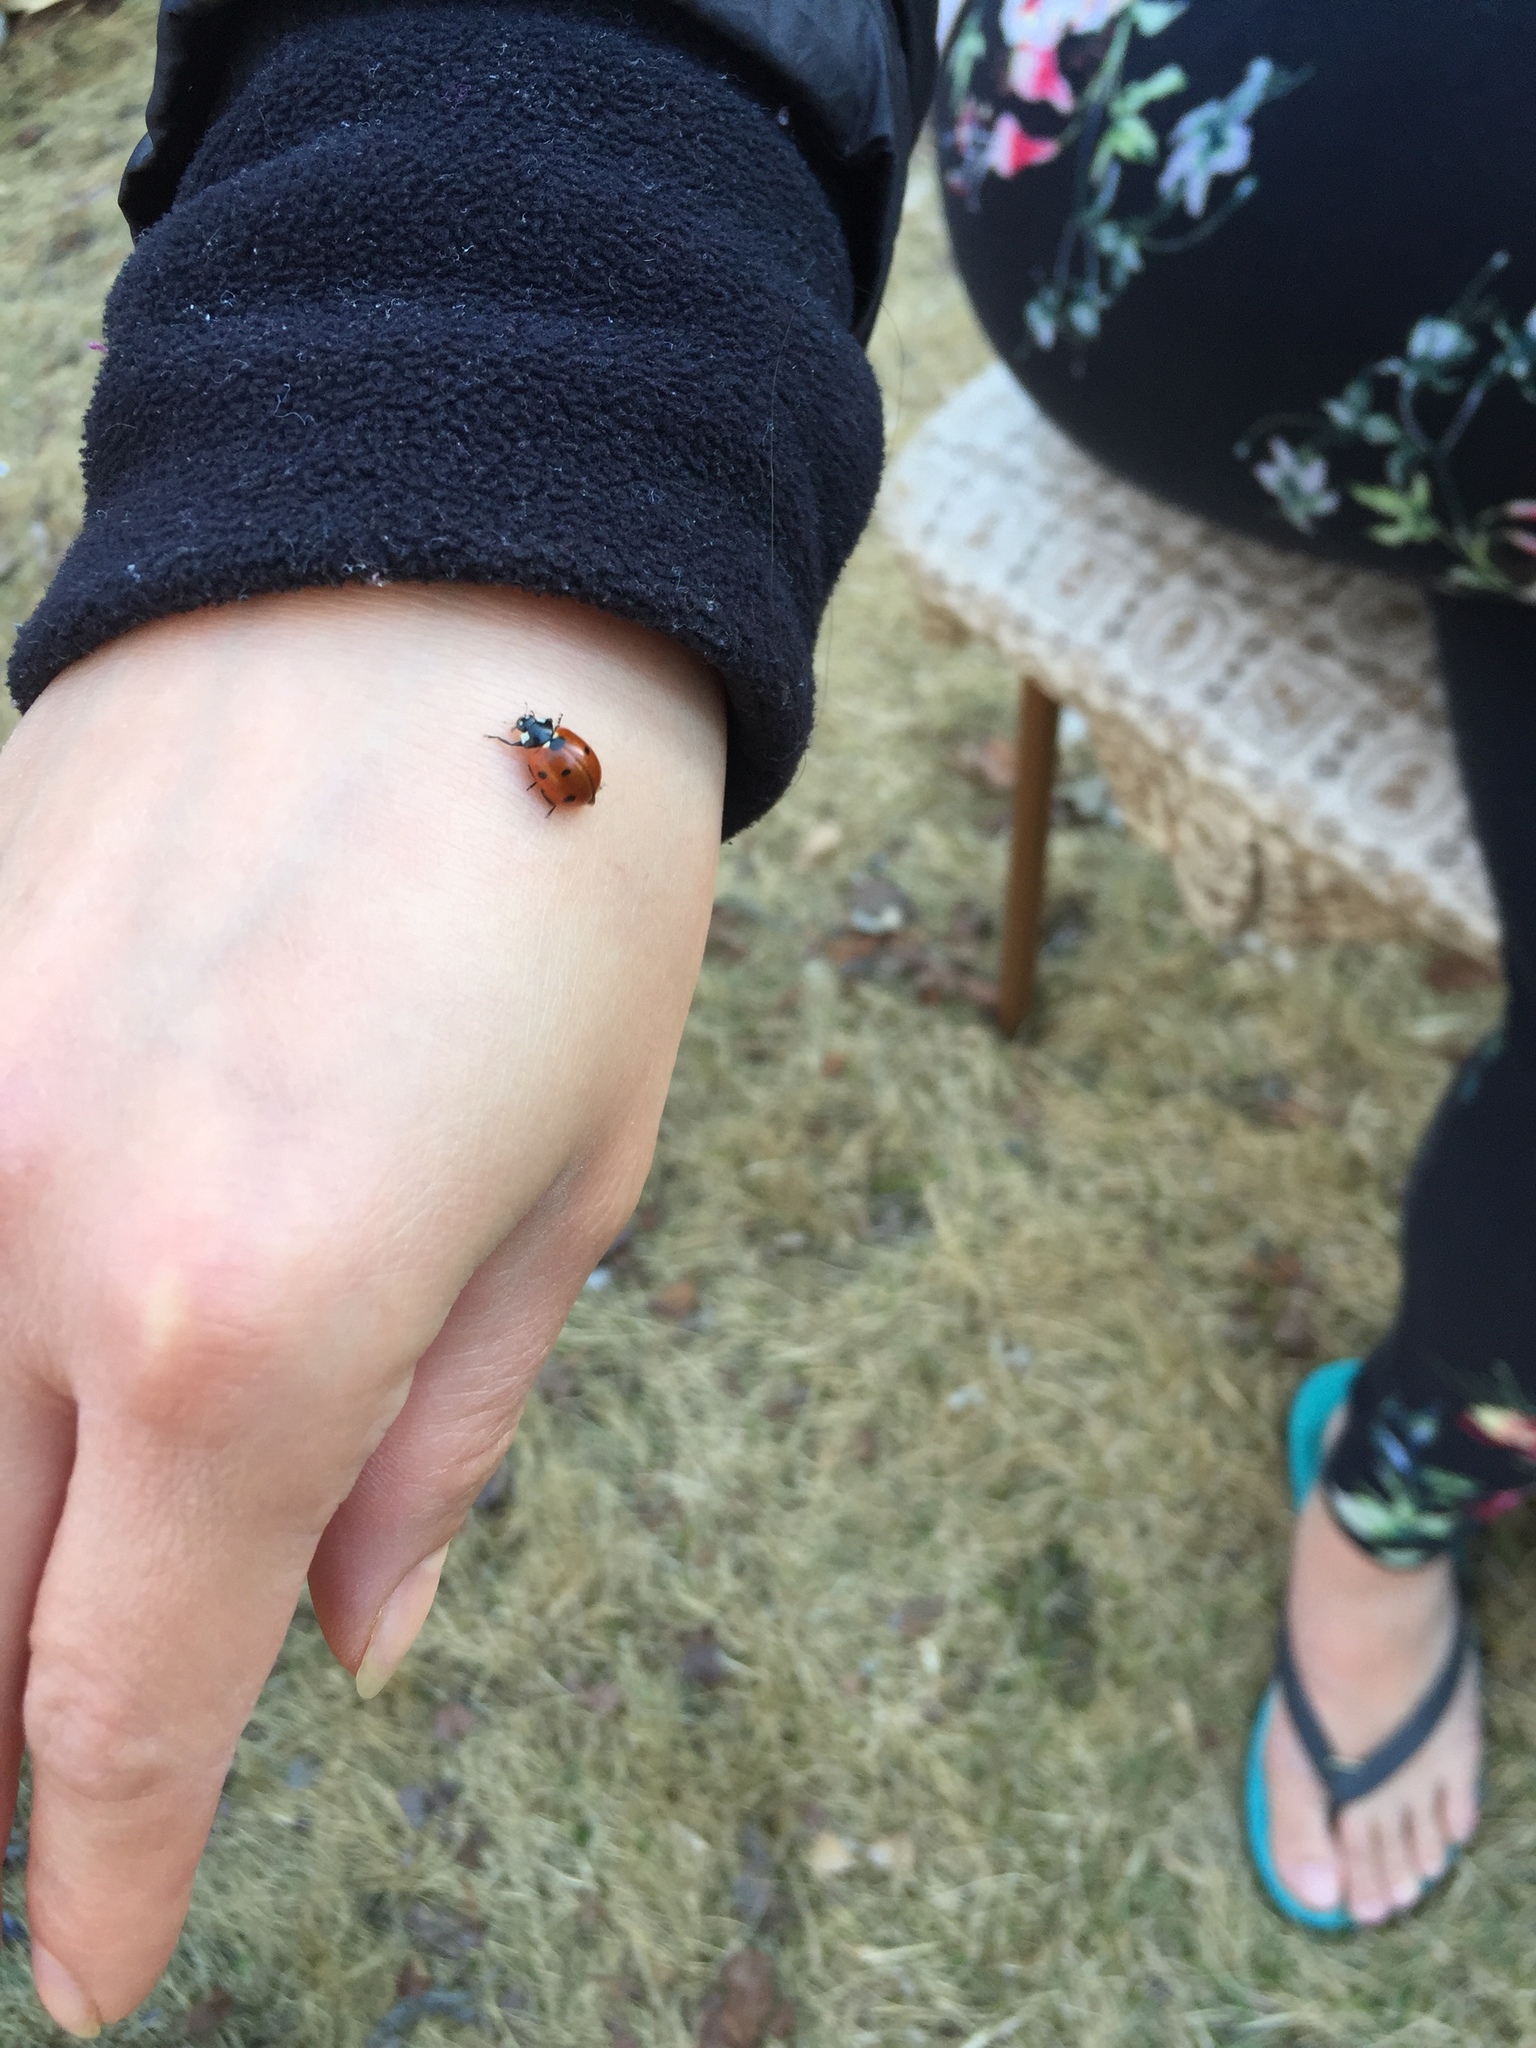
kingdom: Animalia
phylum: Arthropoda
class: Insecta
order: Coleoptera
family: Coccinellidae
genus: Coccinella
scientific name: Coccinella septempunctata
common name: Sevenspotted lady beetle
